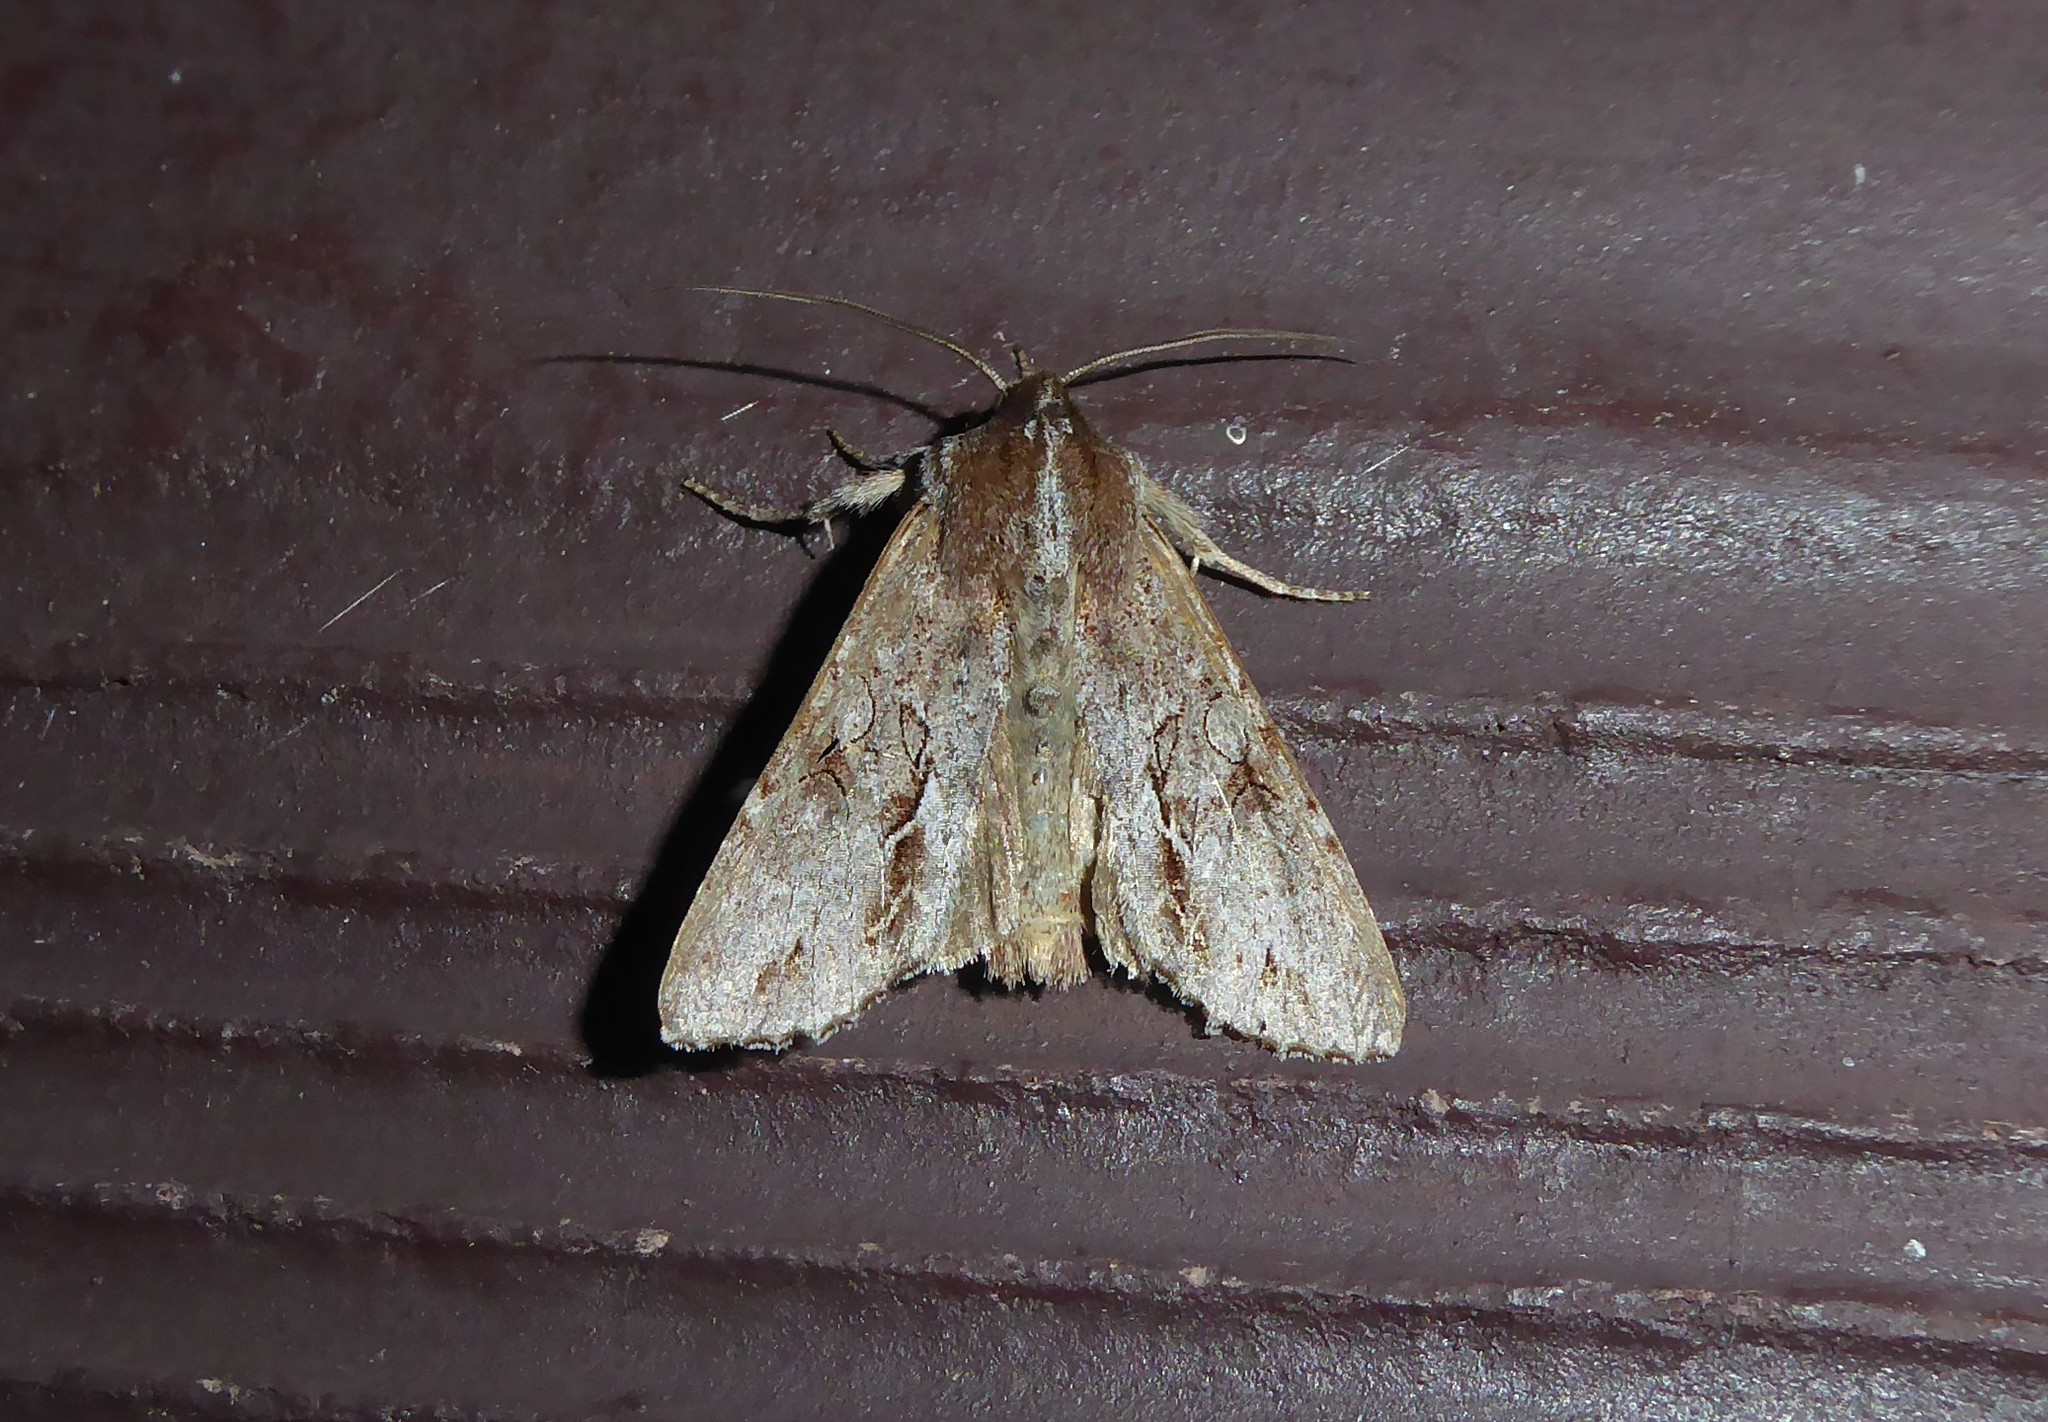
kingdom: Animalia
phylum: Arthropoda
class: Insecta
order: Lepidoptera
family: Noctuidae
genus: Ichneutica
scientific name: Ichneutica
